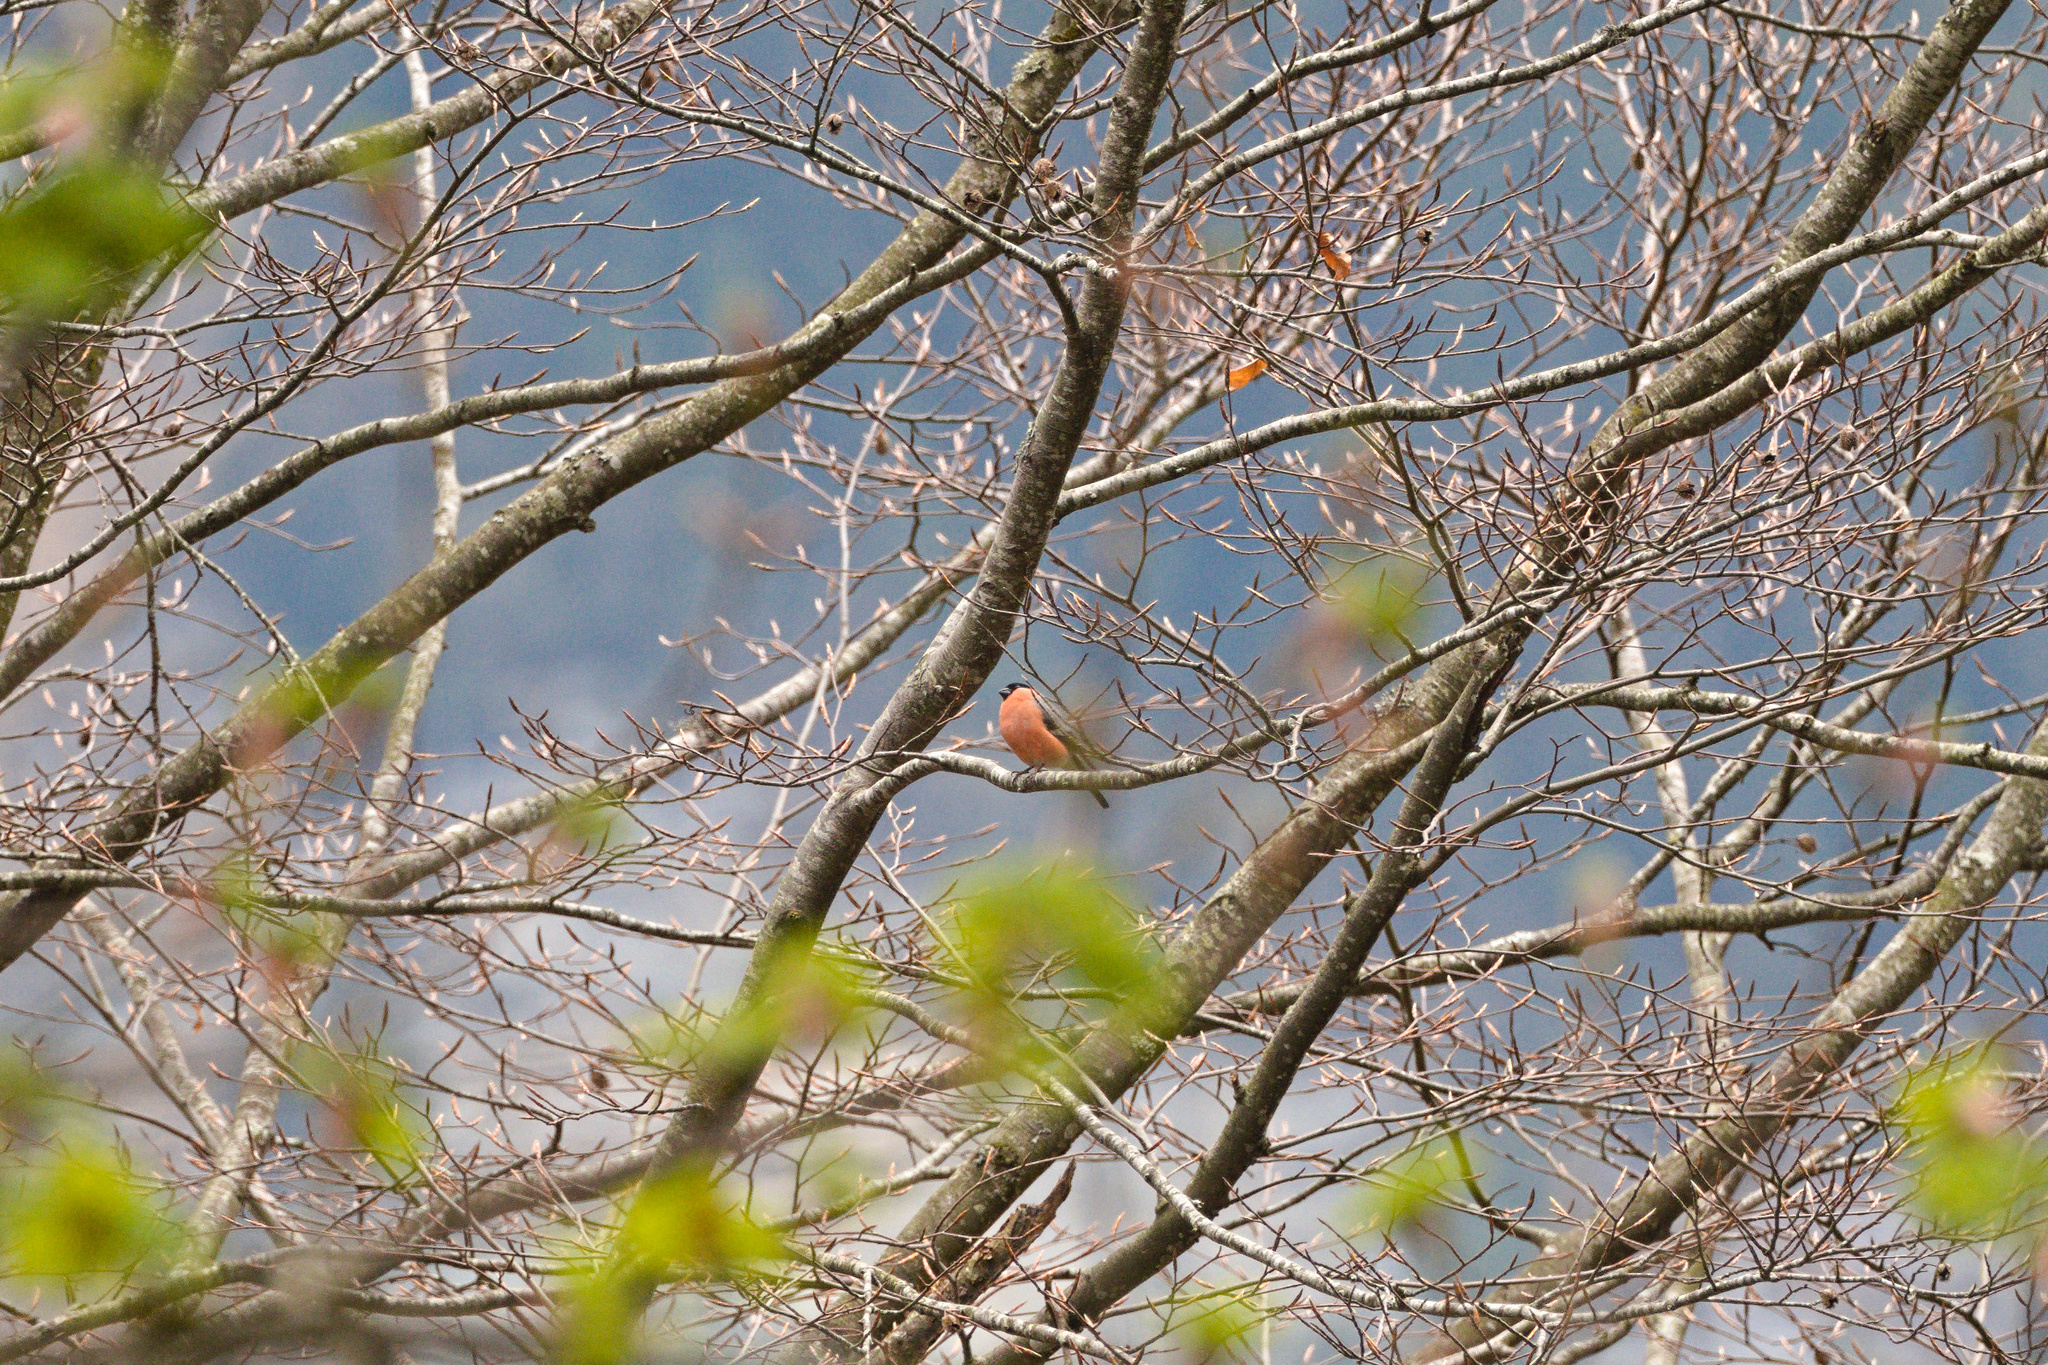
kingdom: Animalia
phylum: Chordata
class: Aves
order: Passeriformes
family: Fringillidae
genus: Pyrrhula
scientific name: Pyrrhula pyrrhula
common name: Eurasian bullfinch
